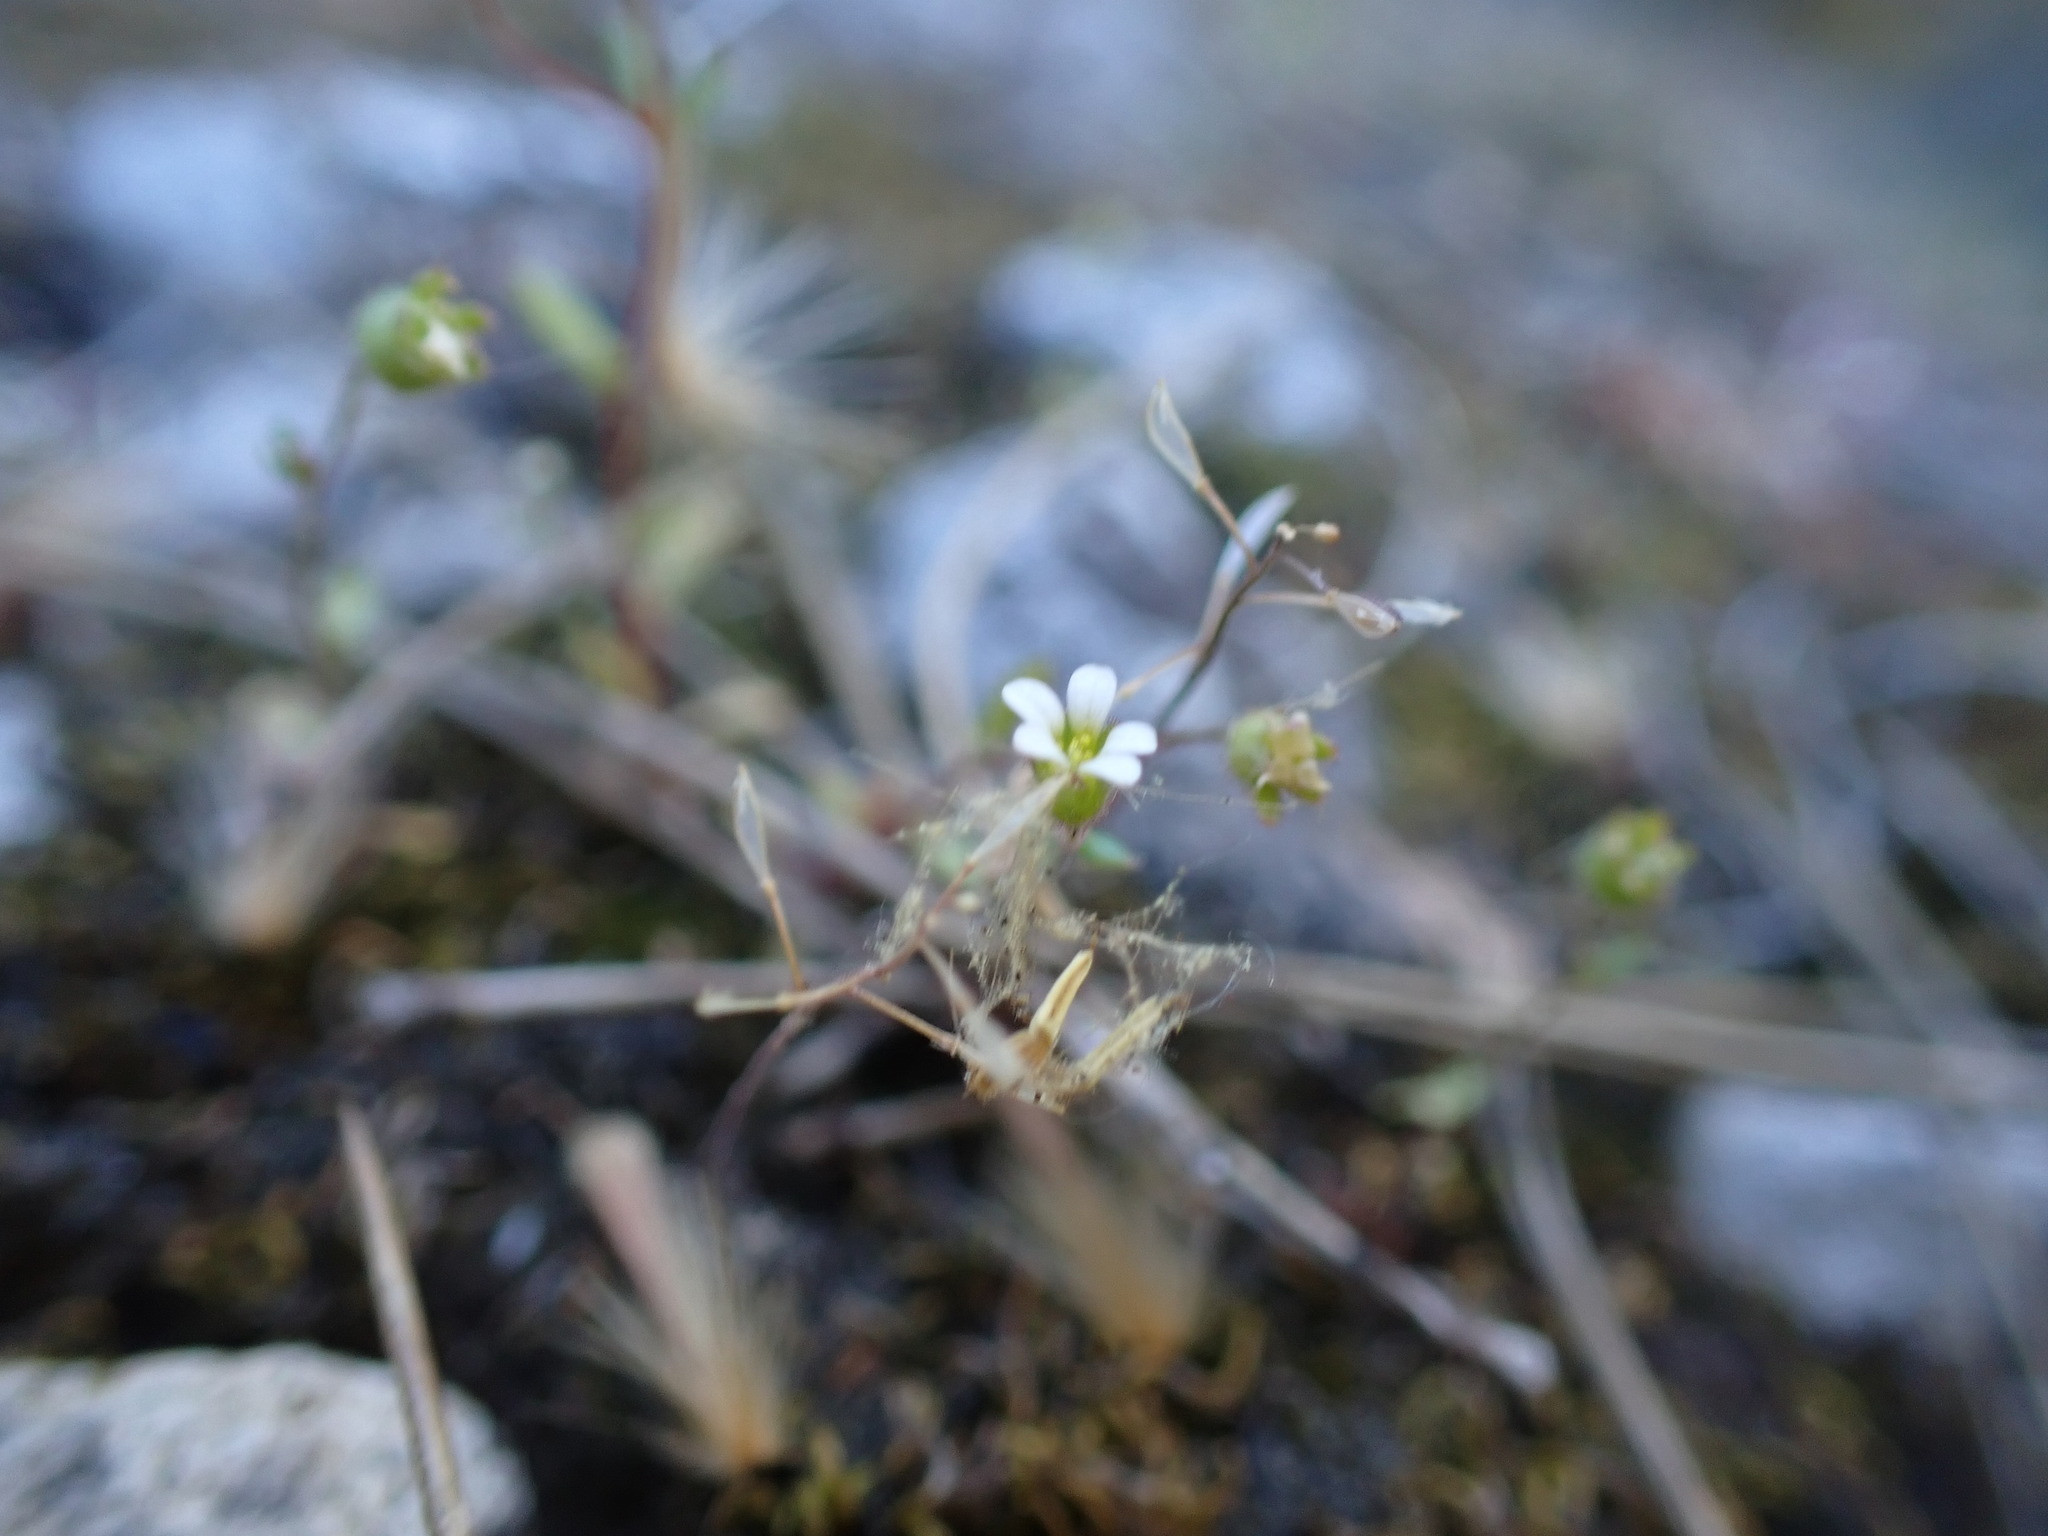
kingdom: Plantae
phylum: Tracheophyta
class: Magnoliopsida
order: Saxifragales
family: Saxifragaceae
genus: Saxifraga
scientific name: Saxifraga tridactylites
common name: Rue-leaved saxifrage
